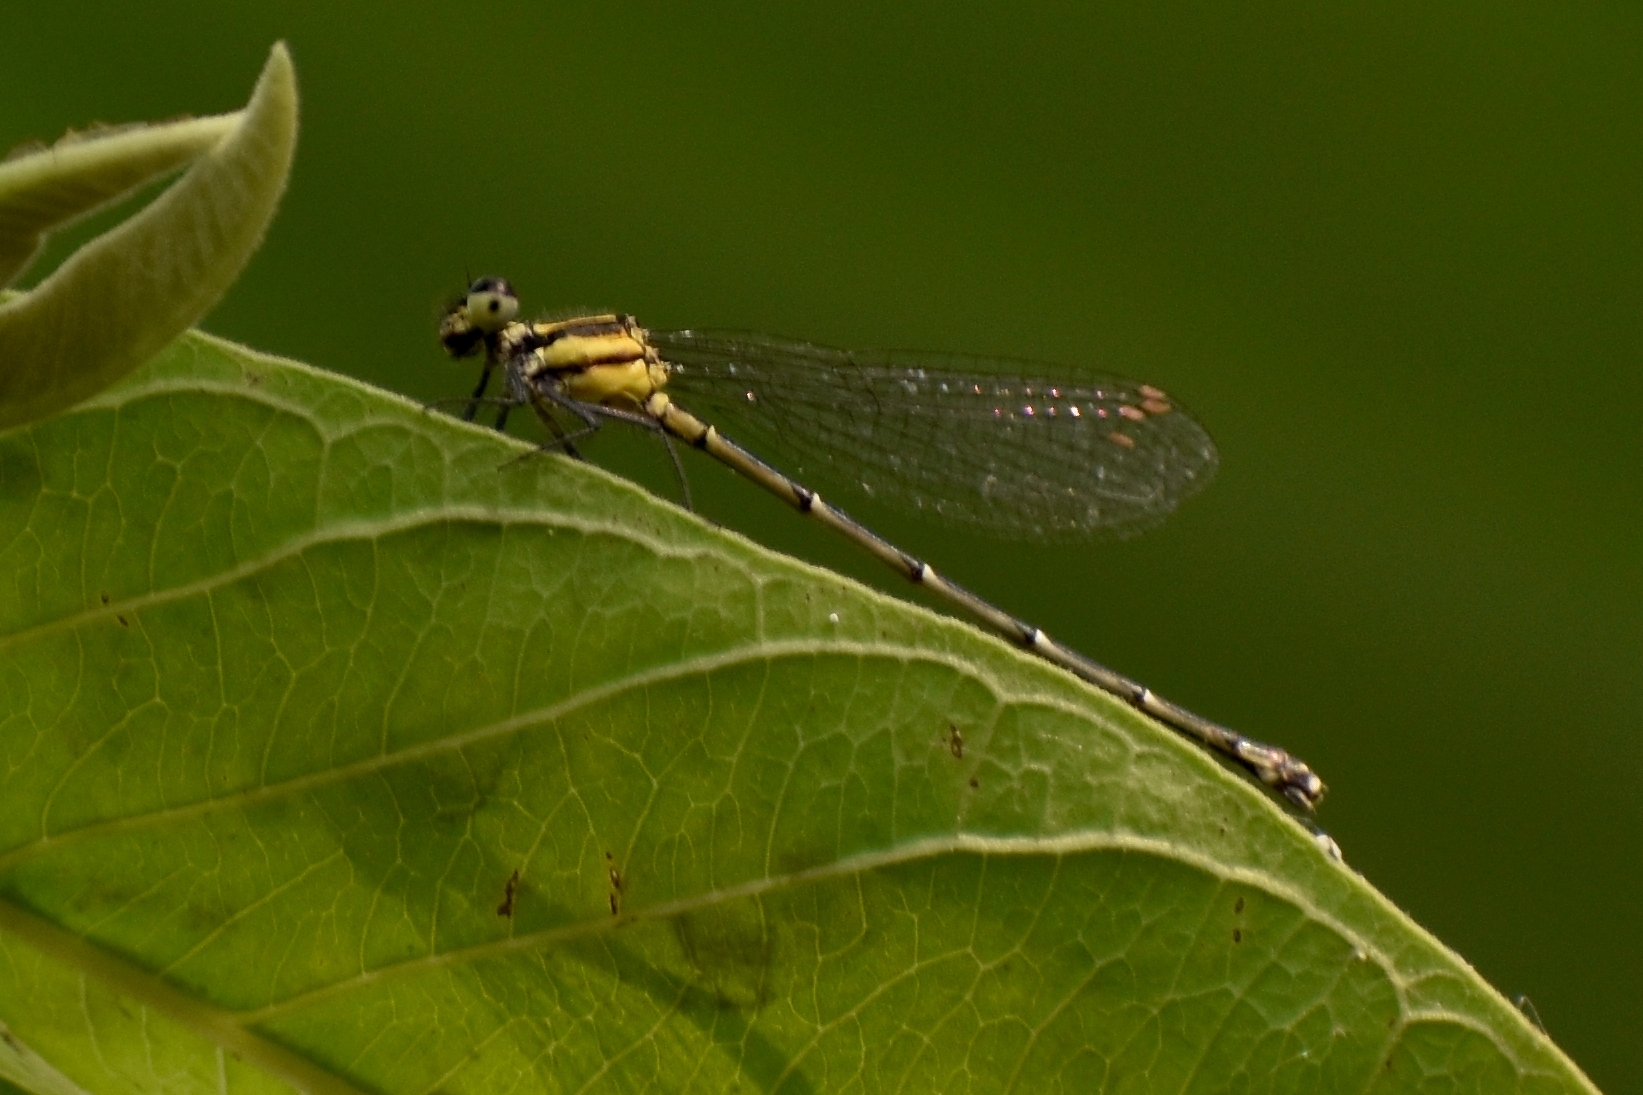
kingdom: Animalia
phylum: Arthropoda
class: Insecta
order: Odonata
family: Platycnemididae
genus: Onychargia
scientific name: Onychargia atrocyana
